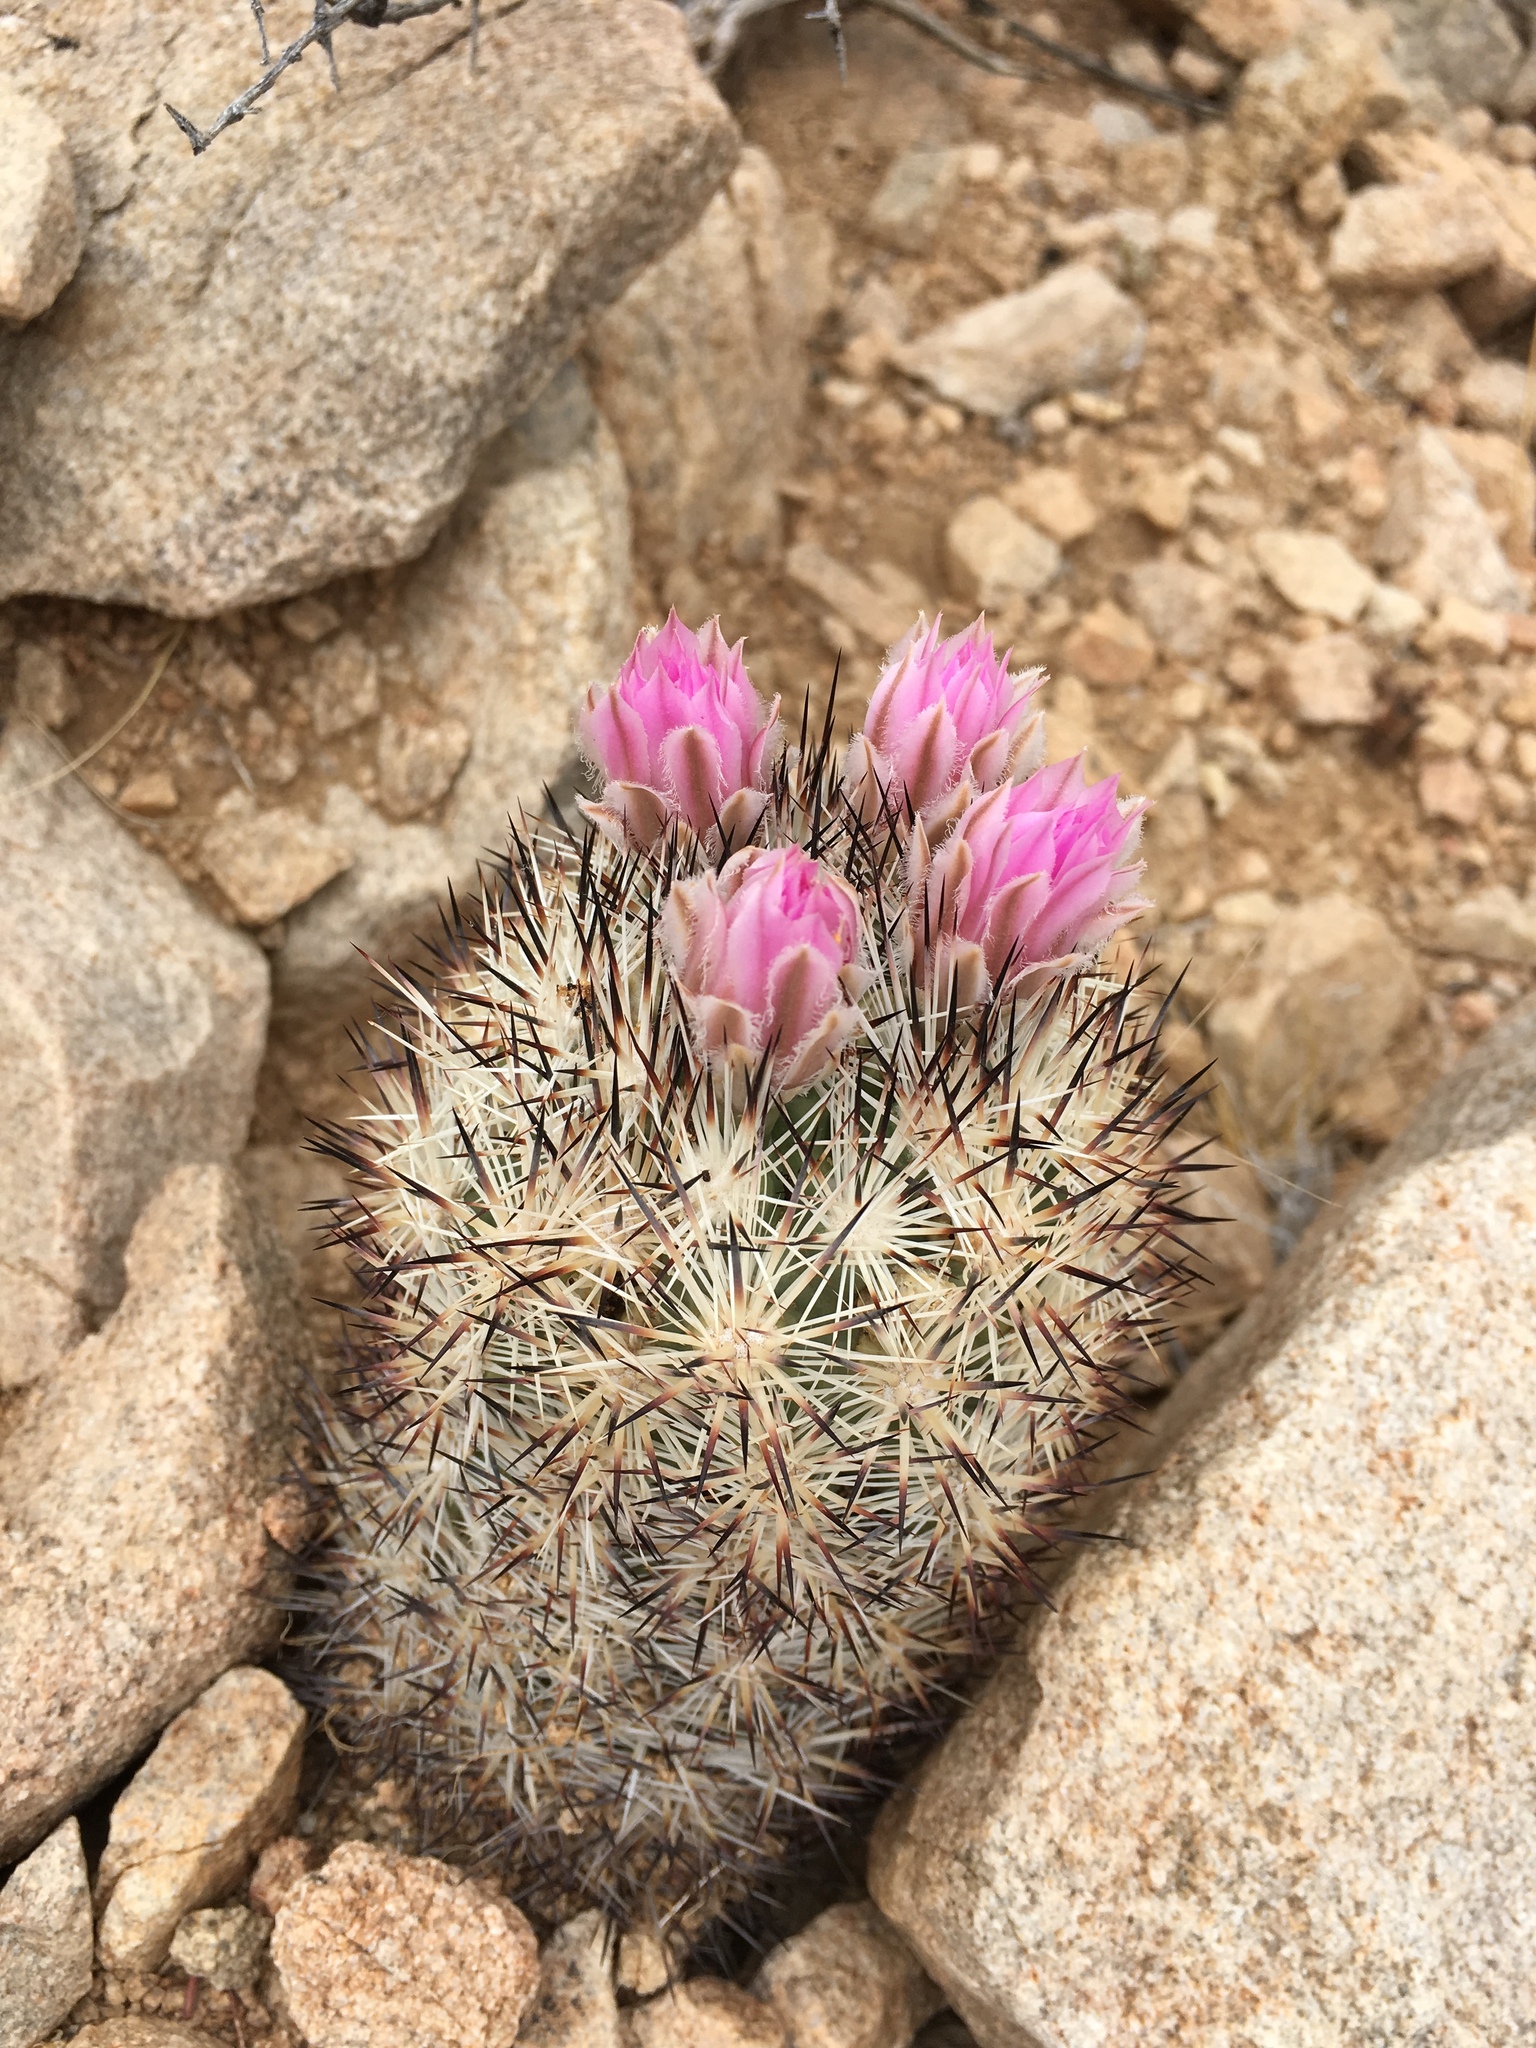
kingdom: Plantae
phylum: Tracheophyta
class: Magnoliopsida
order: Caryophyllales
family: Cactaceae
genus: Pelecyphora
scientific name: Pelecyphora alversonii
